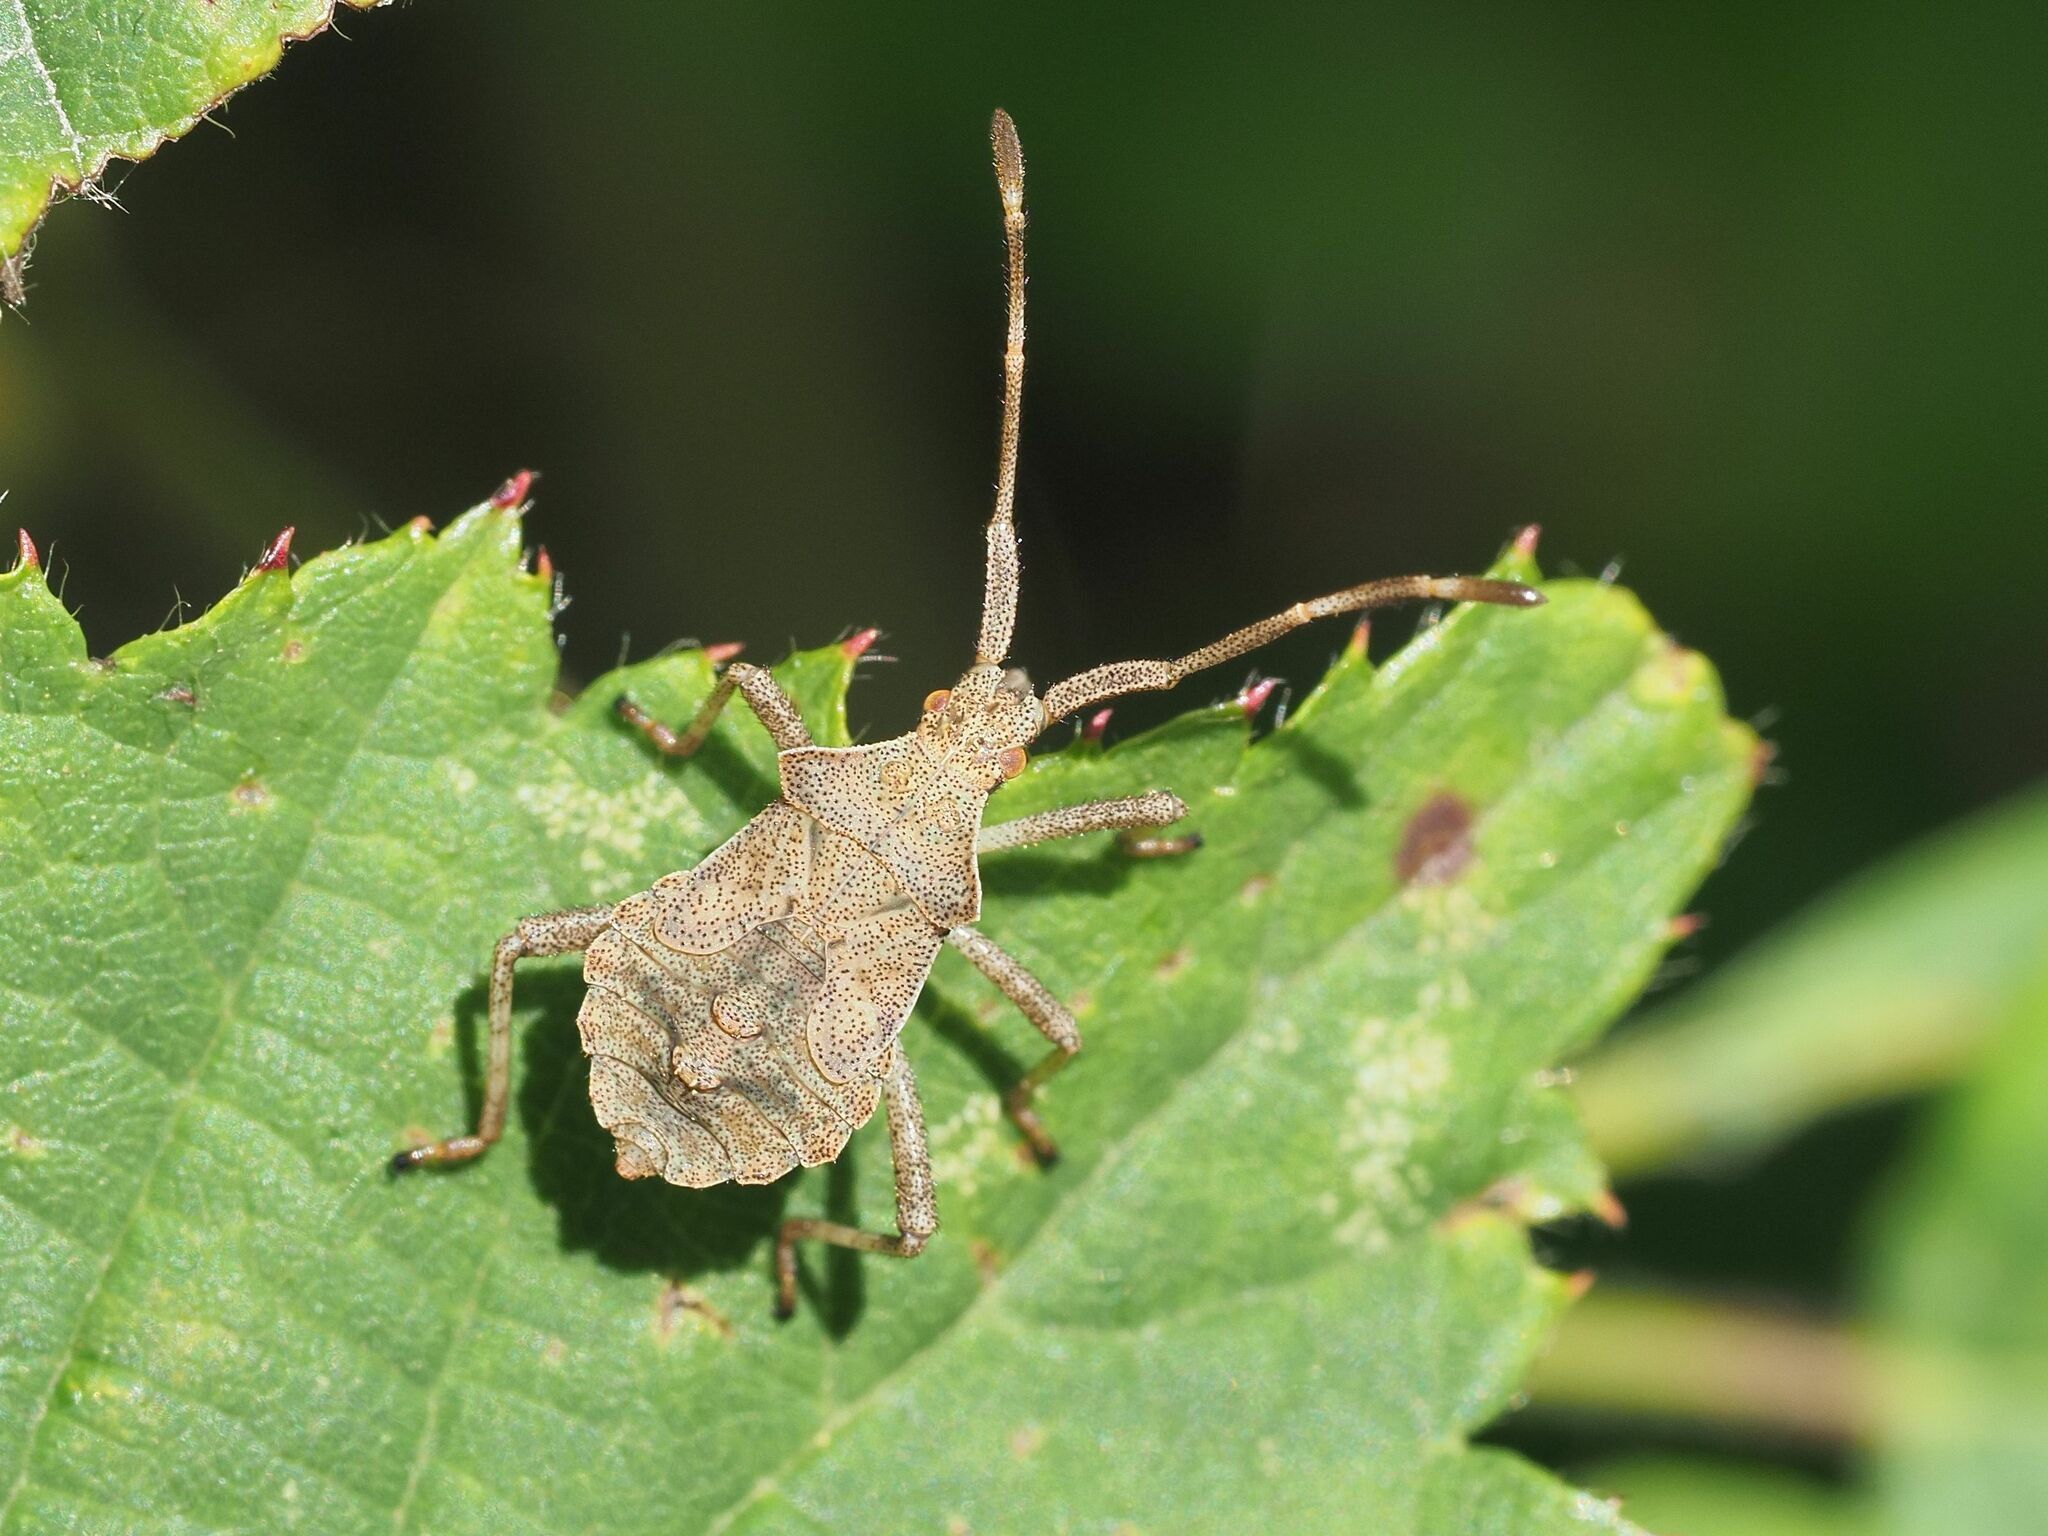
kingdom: Animalia
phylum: Arthropoda
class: Insecta
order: Hemiptera
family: Coreidae
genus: Coreus
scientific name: Coreus marginatus
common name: Dock bug
